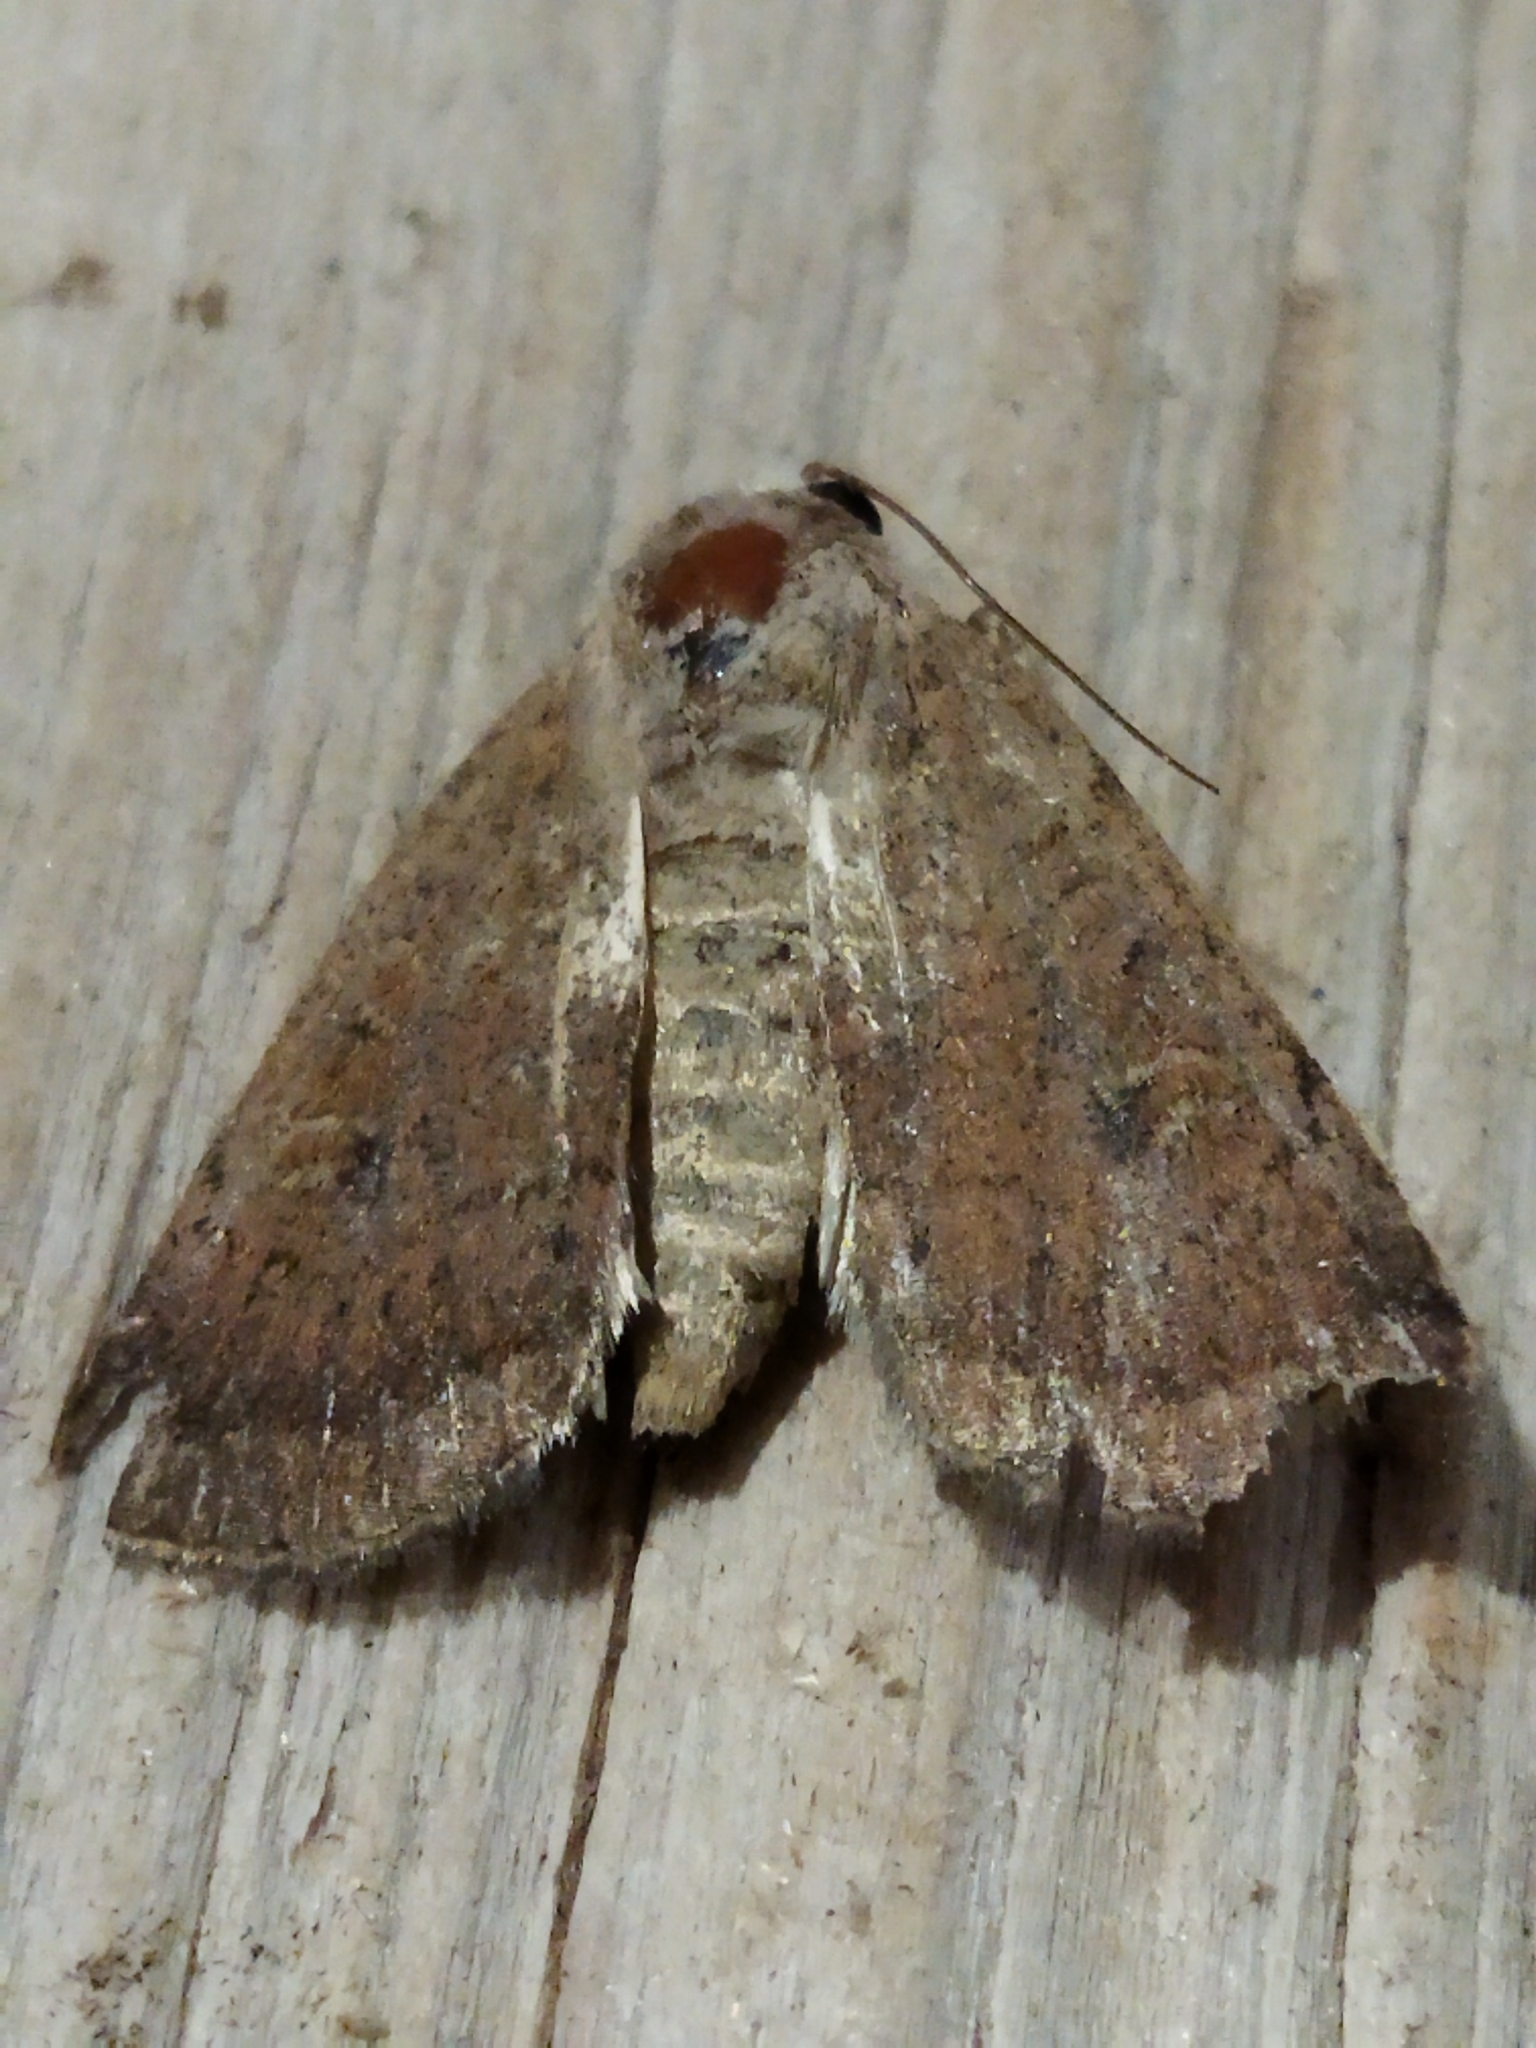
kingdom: Animalia
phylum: Arthropoda
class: Insecta
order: Lepidoptera
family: Noctuidae
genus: Xestia
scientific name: Xestia xanthographa
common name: Square-spot rustic
